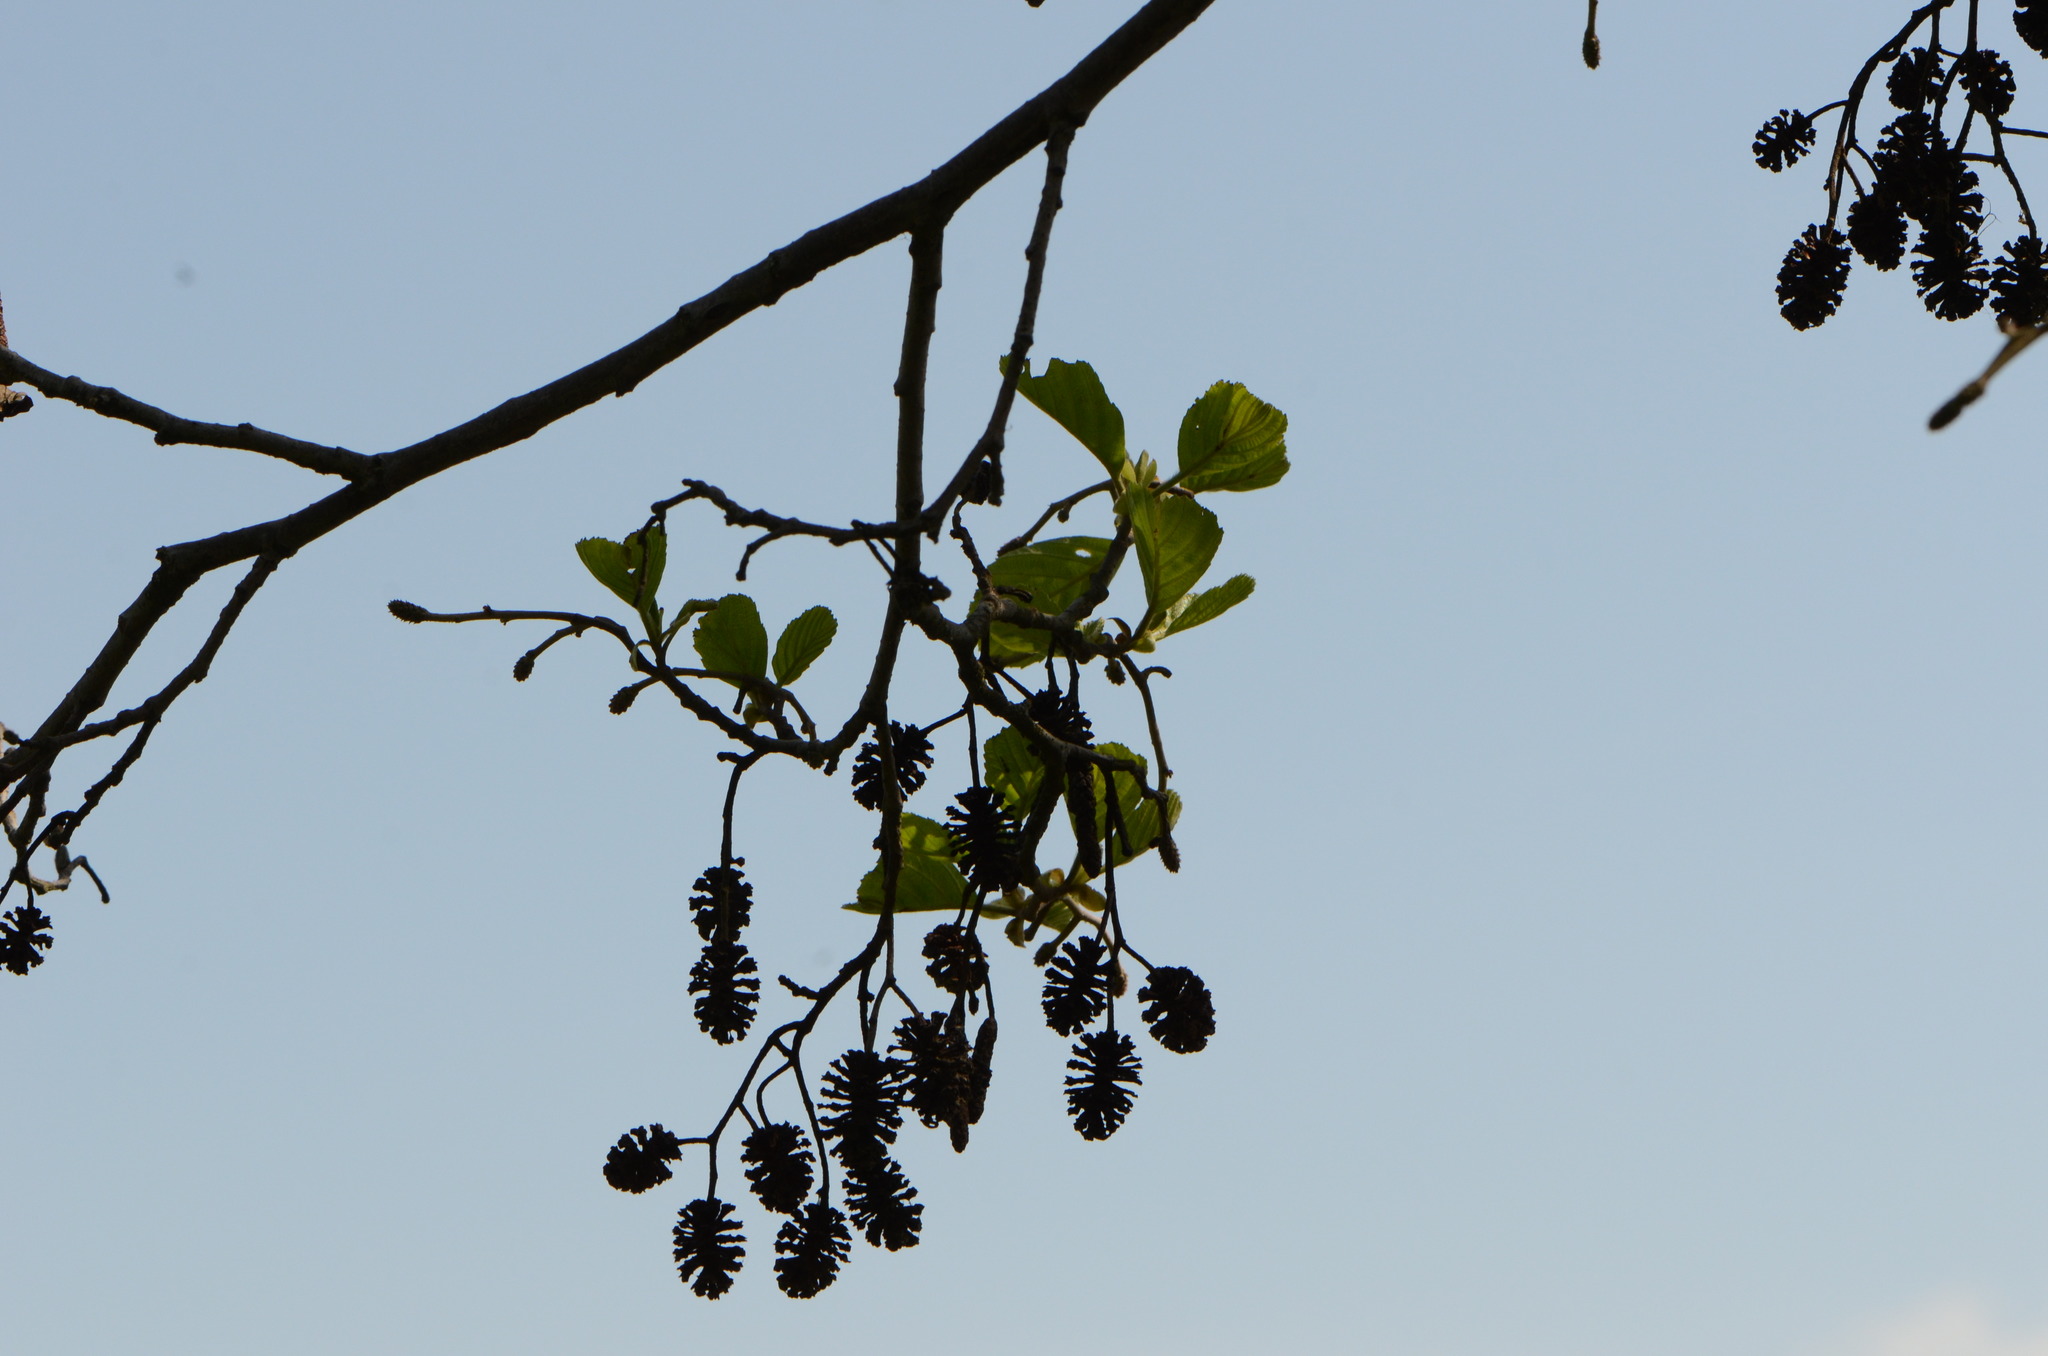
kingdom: Plantae
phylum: Tracheophyta
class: Magnoliopsida
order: Fagales
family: Betulaceae
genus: Alnus
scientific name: Alnus glutinosa
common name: Black alder
